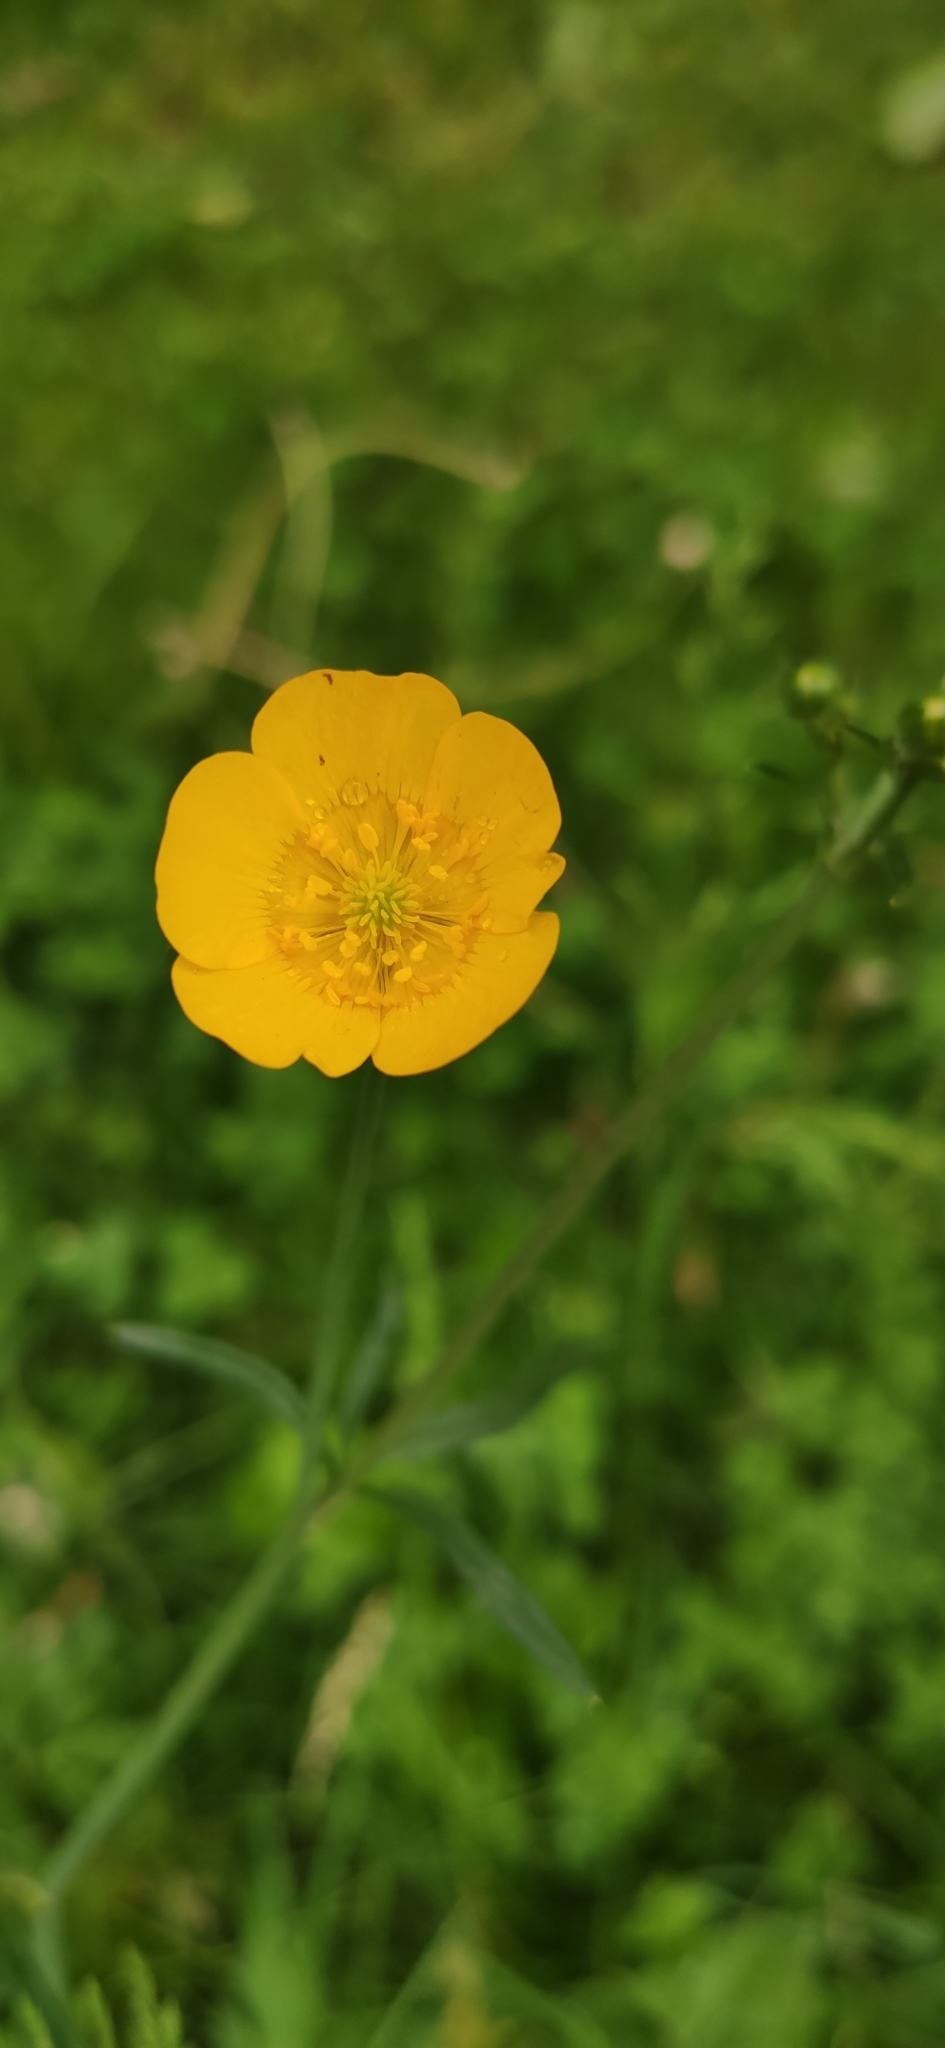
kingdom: Plantae
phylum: Tracheophyta
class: Magnoliopsida
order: Ranunculales
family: Ranunculaceae
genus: Ranunculus
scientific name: Ranunculus acris
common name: Meadow buttercup
